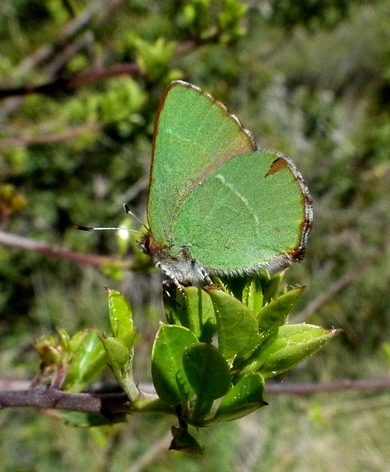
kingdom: Animalia
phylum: Arthropoda
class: Insecta
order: Lepidoptera
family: Lycaenidae
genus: Callophrys
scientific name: Callophrys avis
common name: Chapman's green hairstreak
